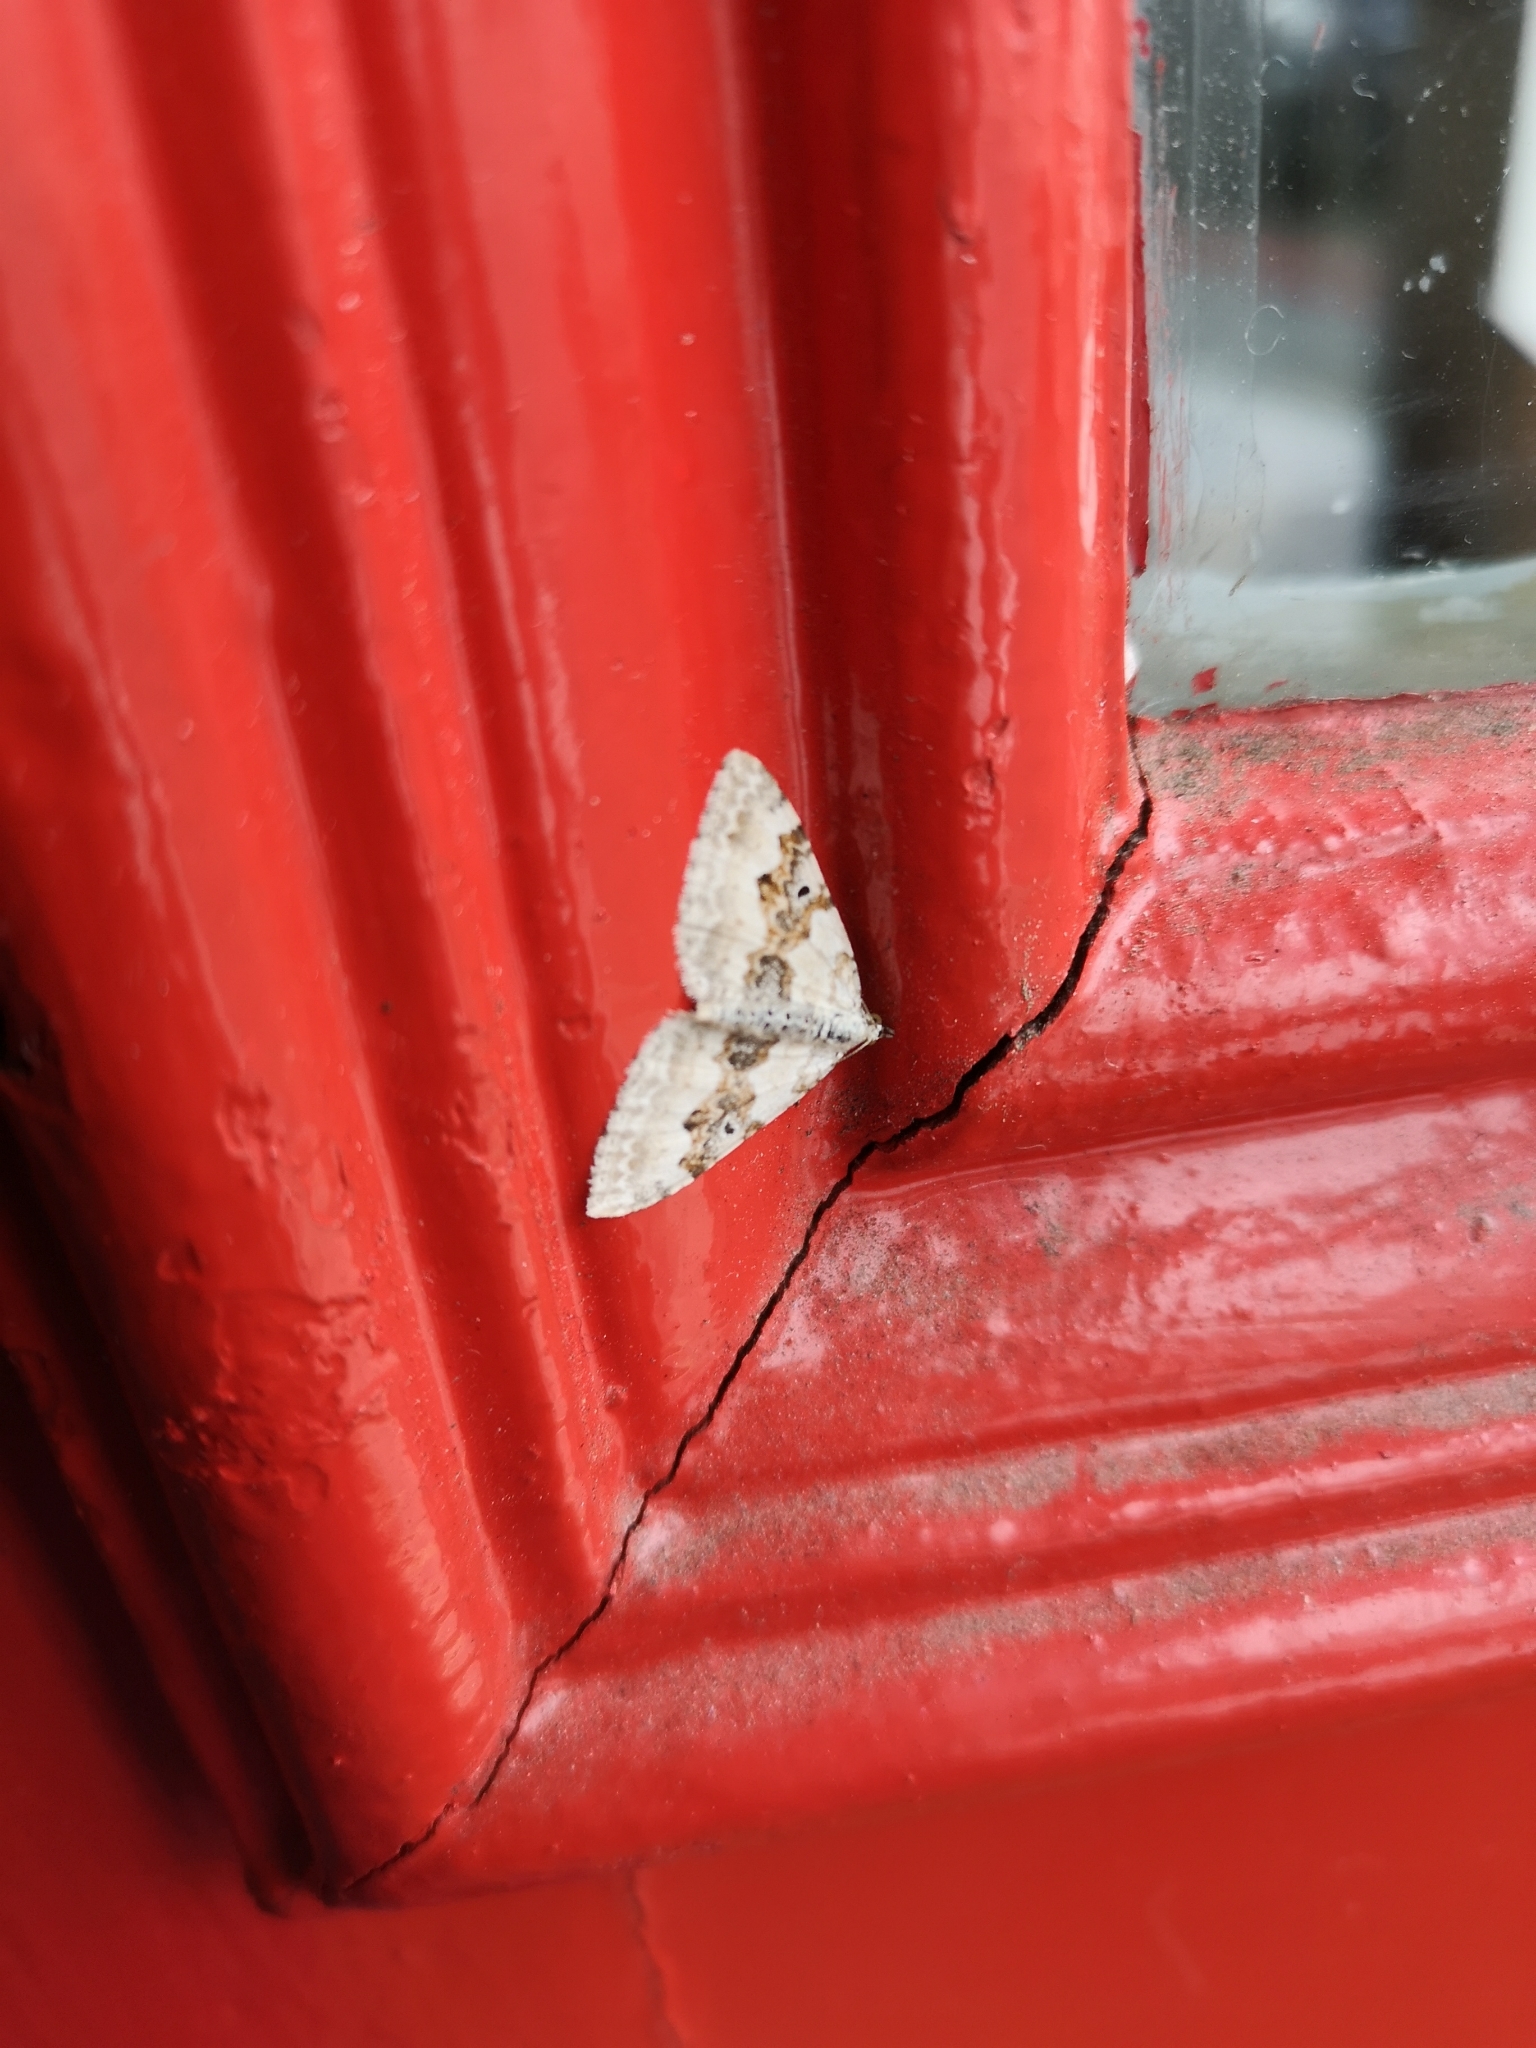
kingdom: Animalia
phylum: Arthropoda
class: Insecta
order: Lepidoptera
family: Geometridae
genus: Xanthorhoe
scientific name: Xanthorhoe montanata
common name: Silver-ground carpet
